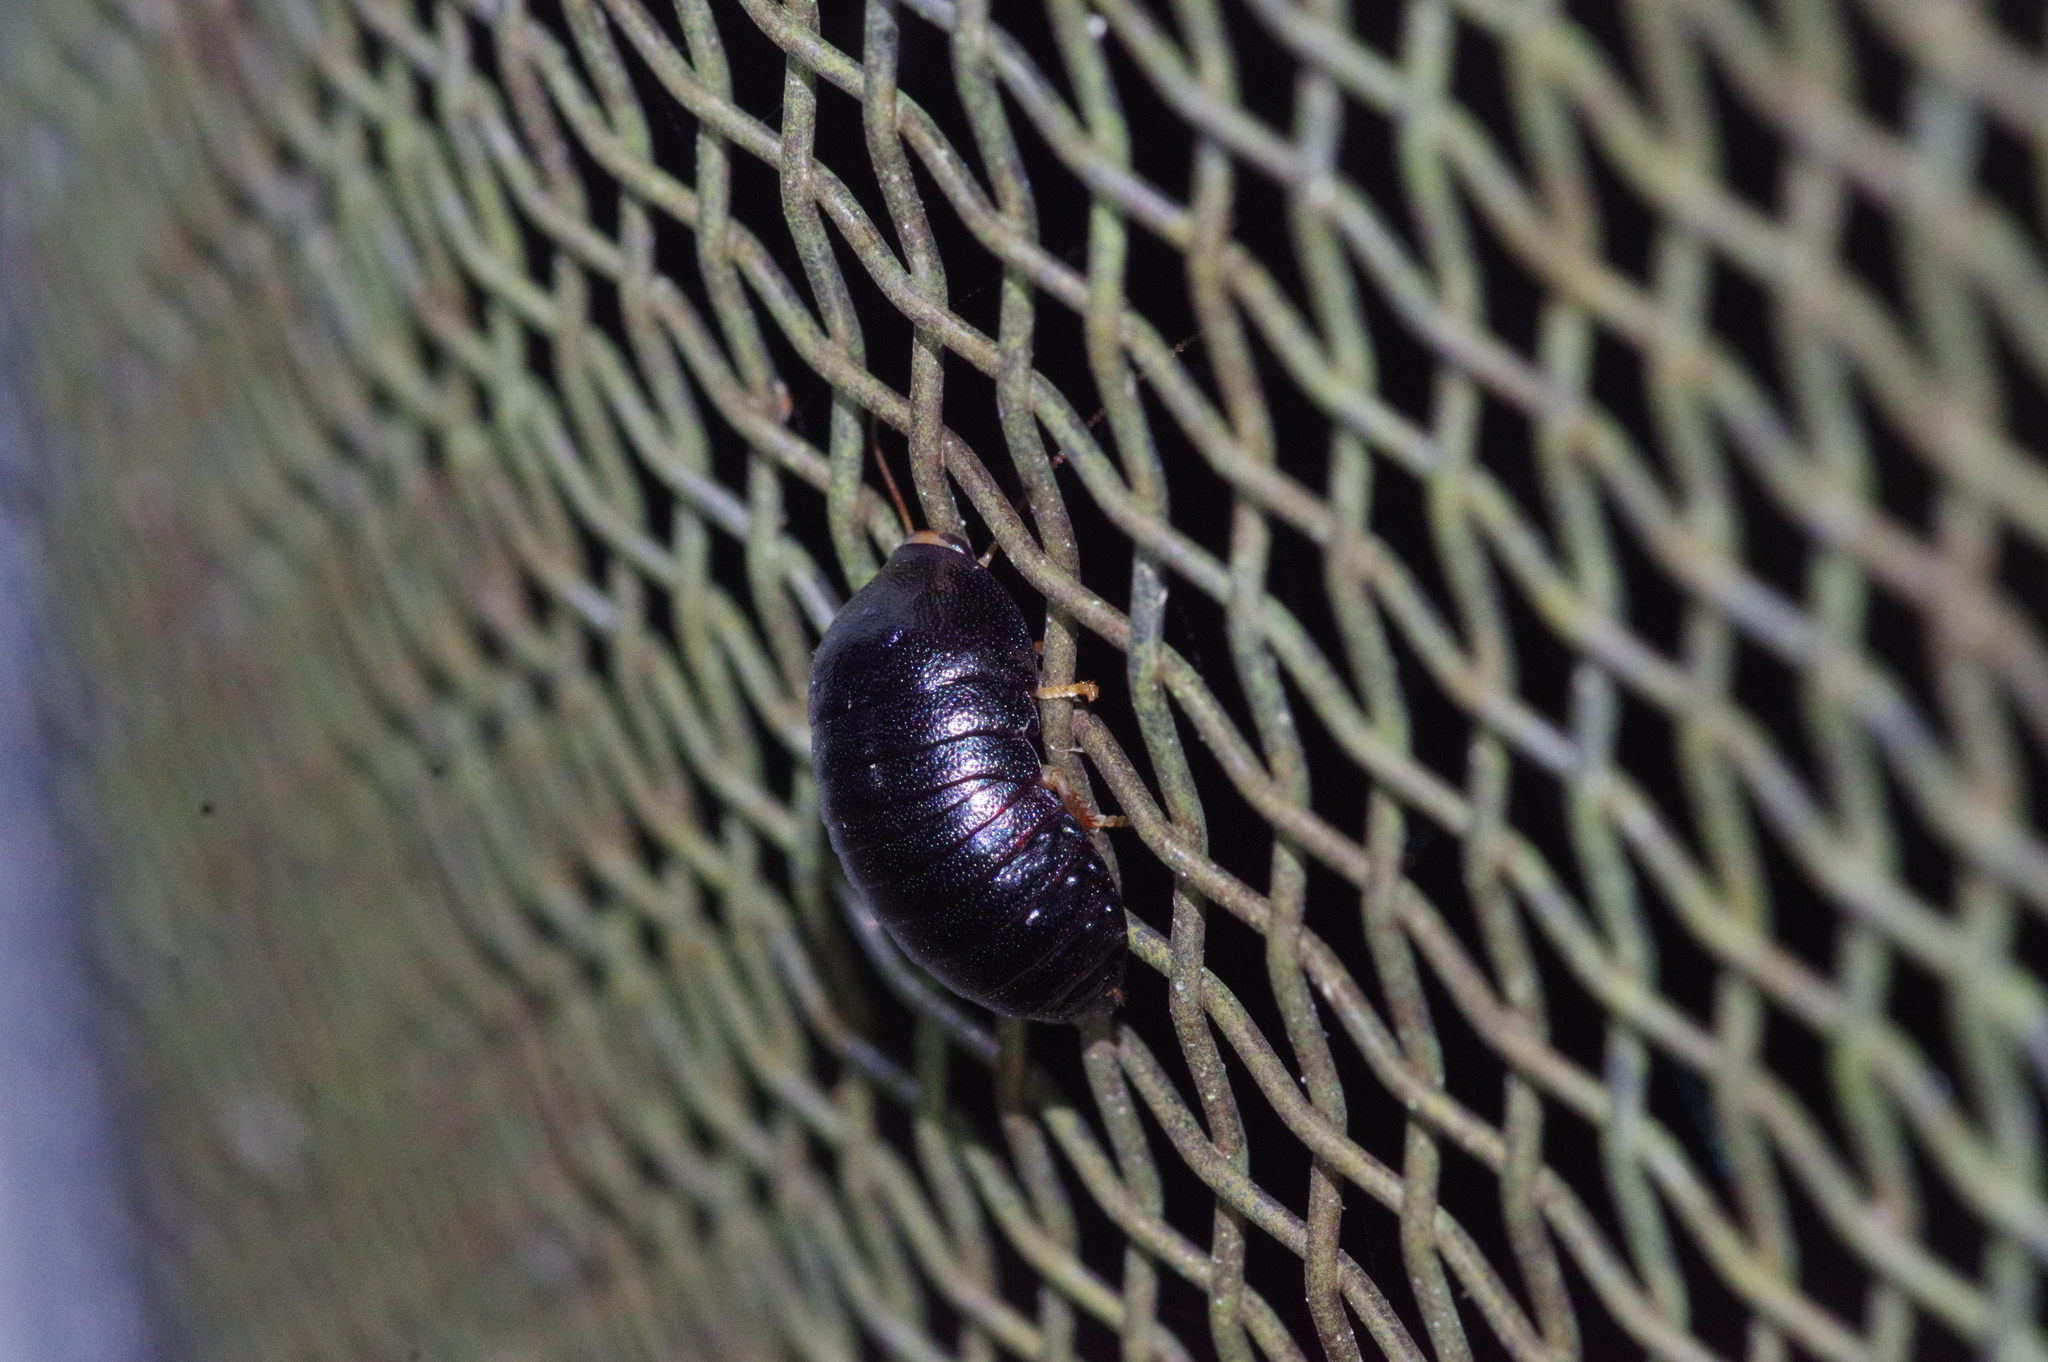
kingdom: Animalia
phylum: Arthropoda
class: Insecta
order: Blattodea
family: Blaberidae
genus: Perisphaerus
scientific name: Perisphaerus pygmaea
